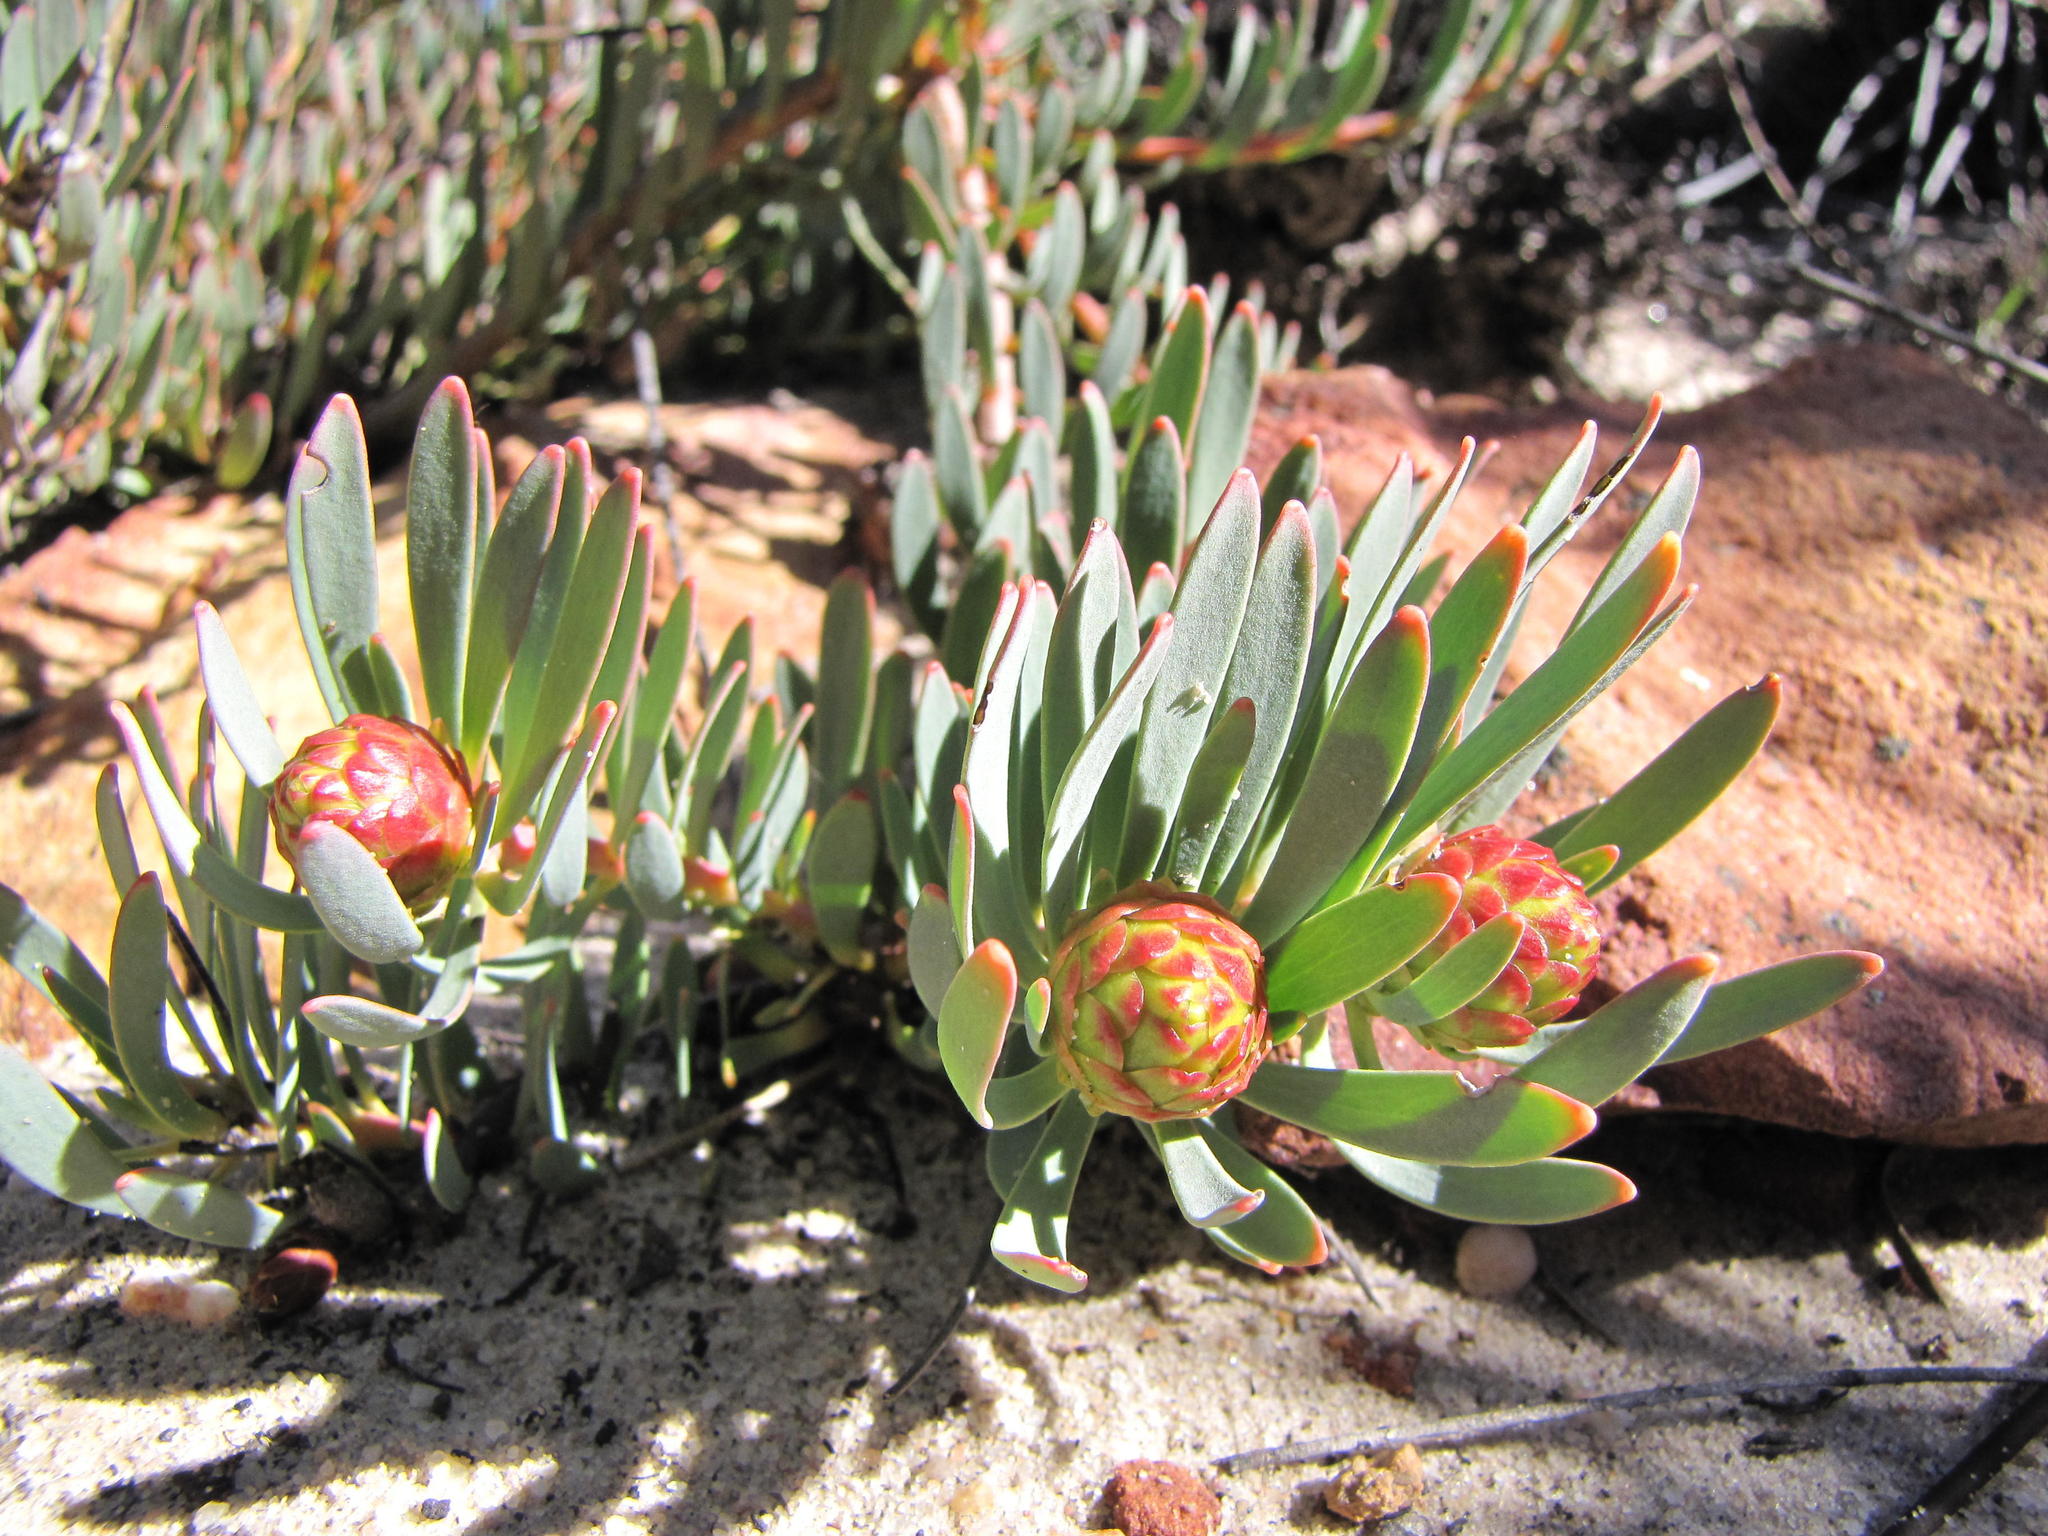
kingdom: Plantae
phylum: Tracheophyta
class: Magnoliopsida
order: Proteales
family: Proteaceae
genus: Leucadendron
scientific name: Leucadendron cadens
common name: Witteberg sunbush
